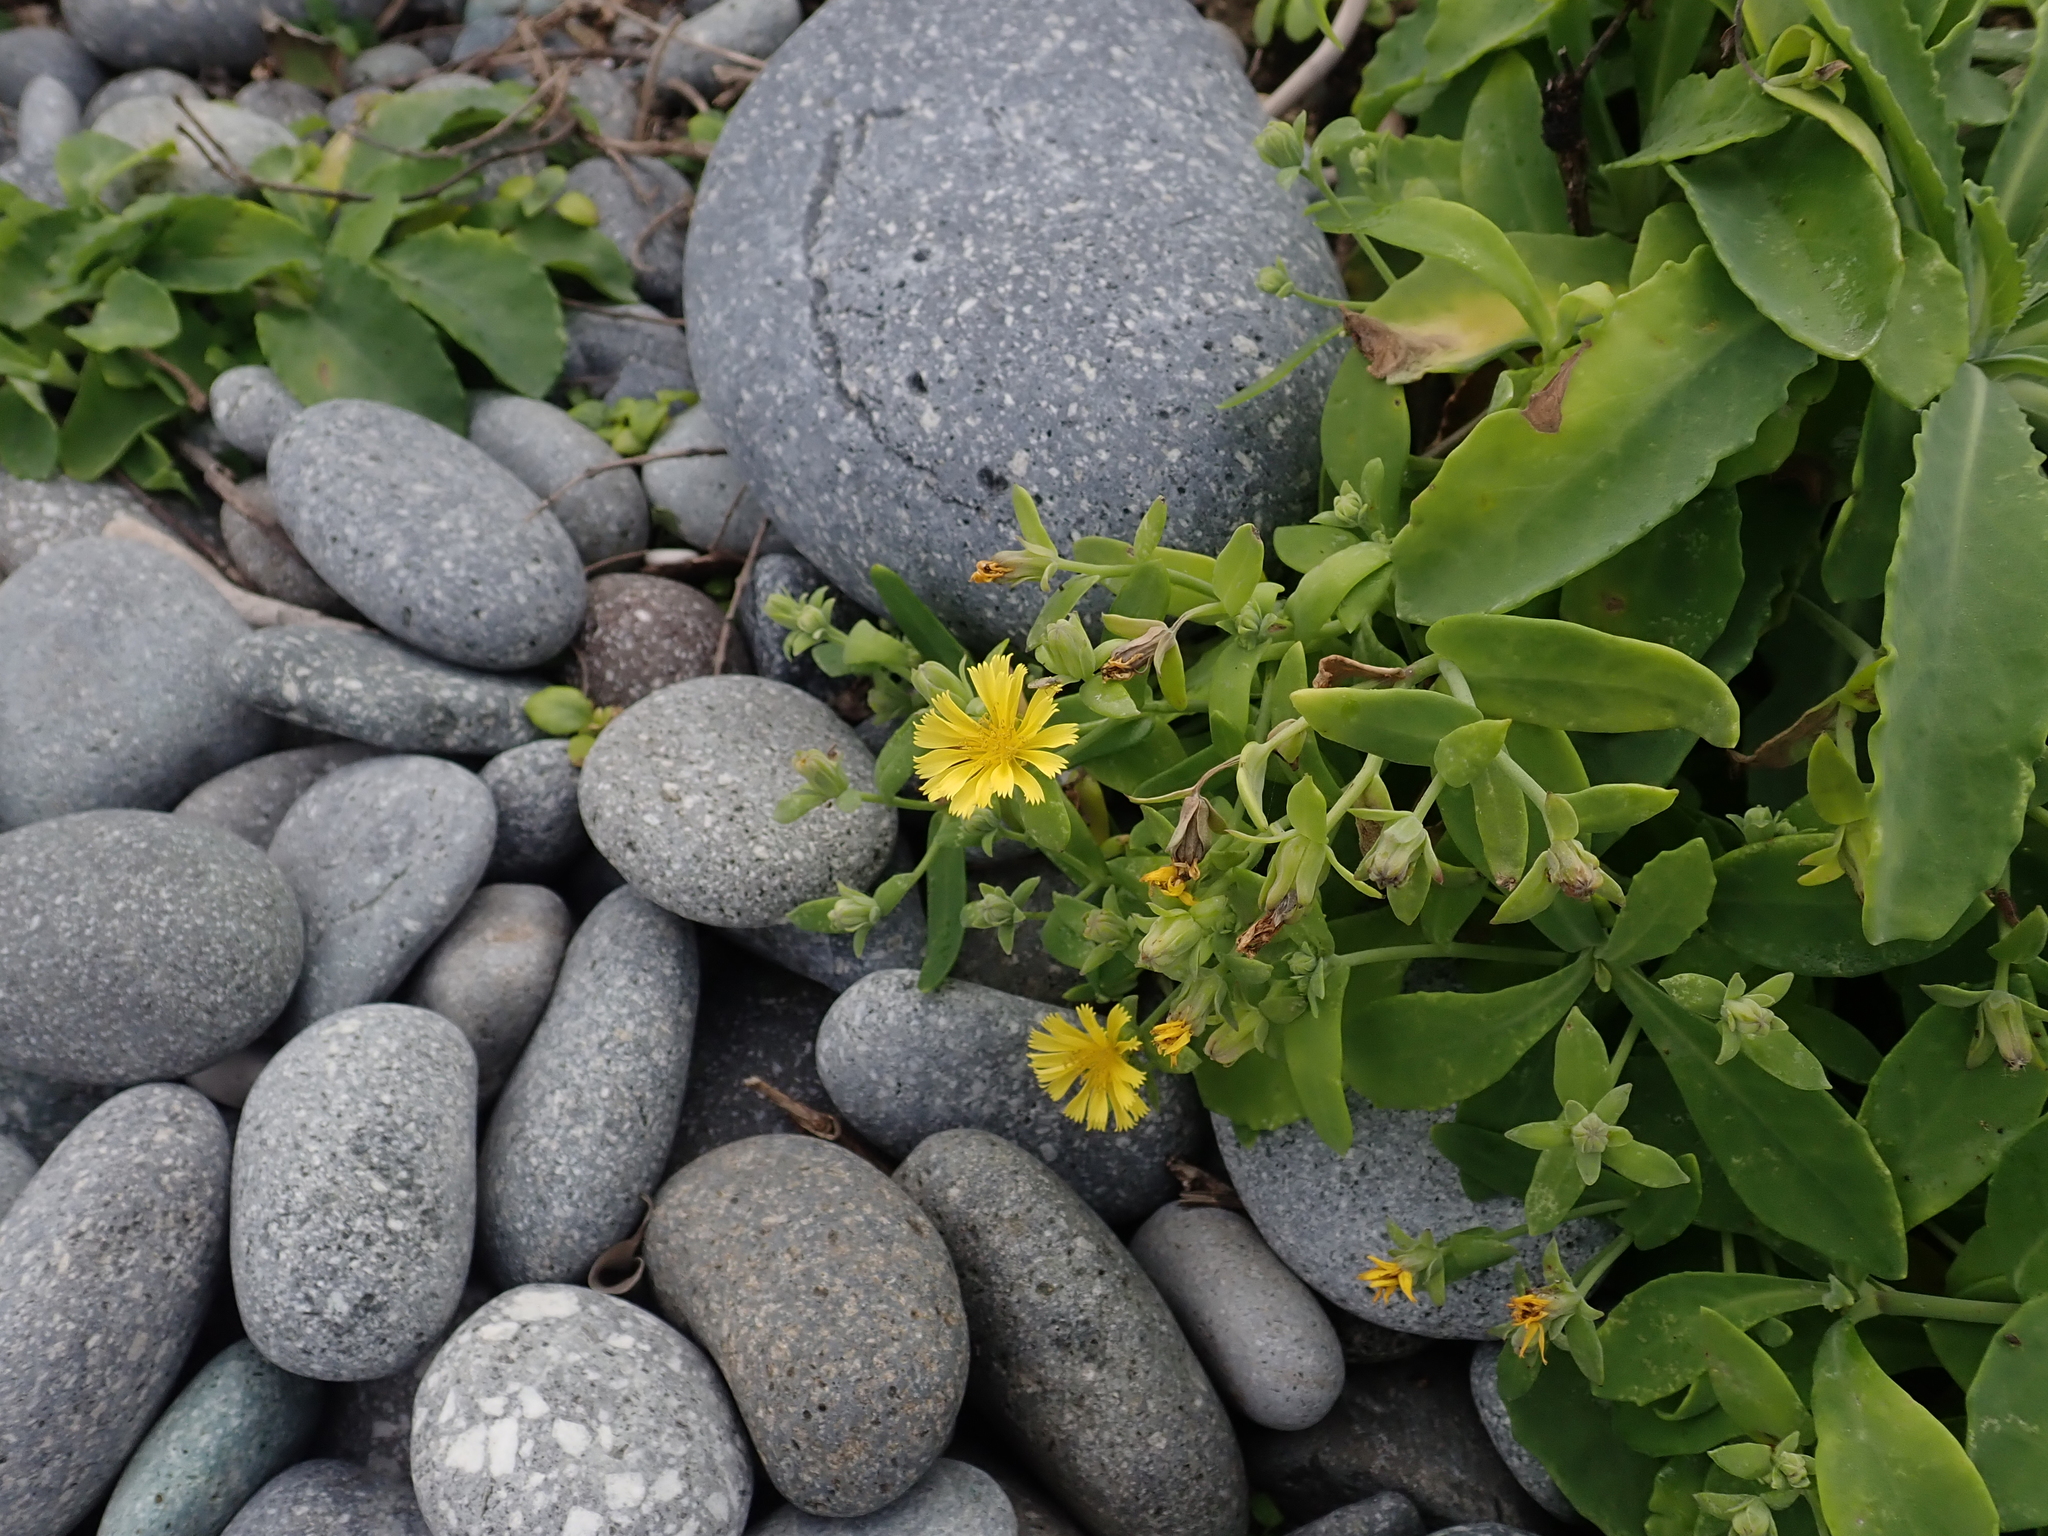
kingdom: Plantae
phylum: Tracheophyta
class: Magnoliopsida
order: Asterales
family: Asteraceae
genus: Crepidiastrum
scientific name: Crepidiastrum lanceolatum
